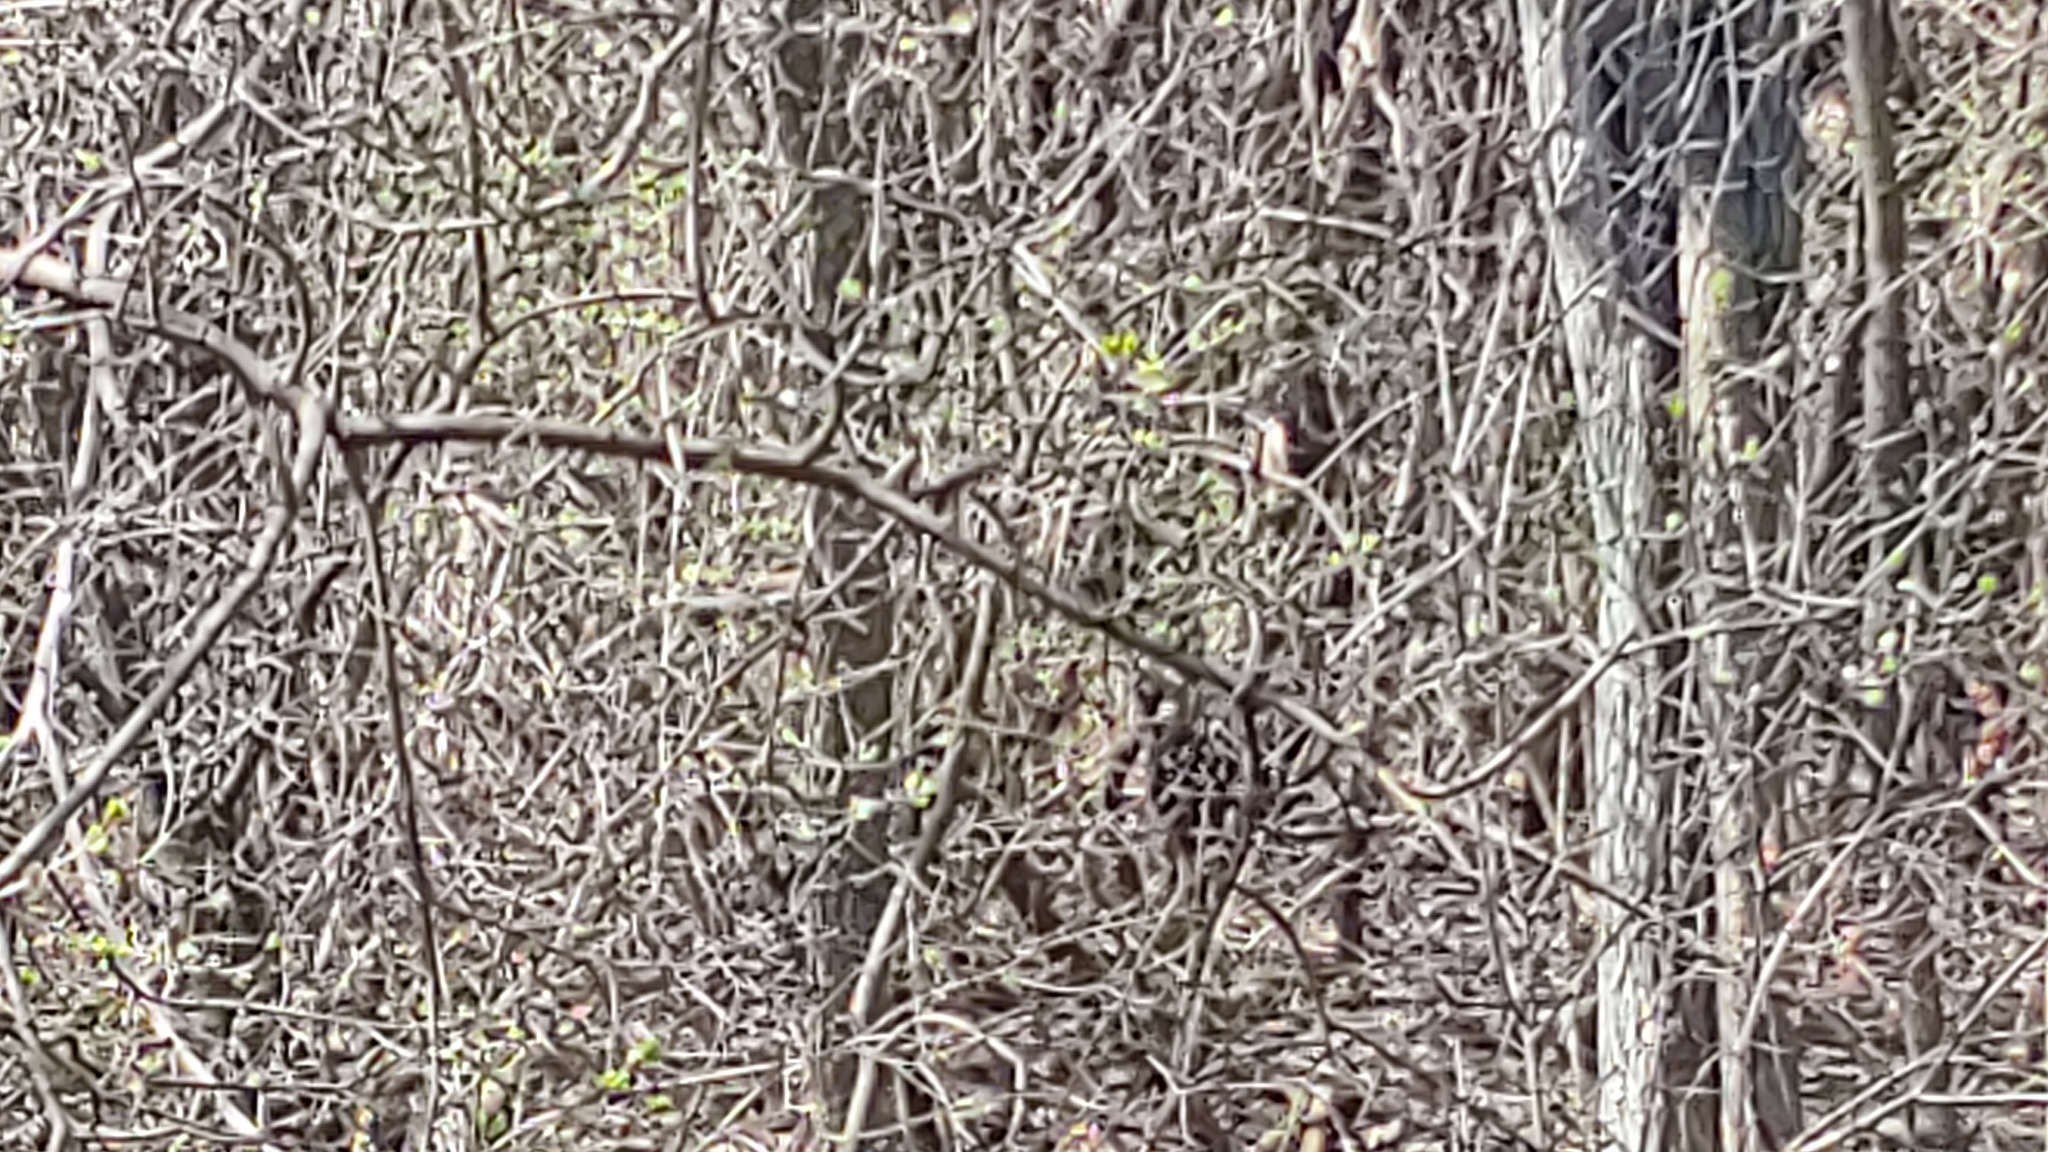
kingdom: Animalia
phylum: Chordata
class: Mammalia
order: Artiodactyla
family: Cervidae
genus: Odocoileus
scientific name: Odocoileus virginianus
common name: White-tailed deer
